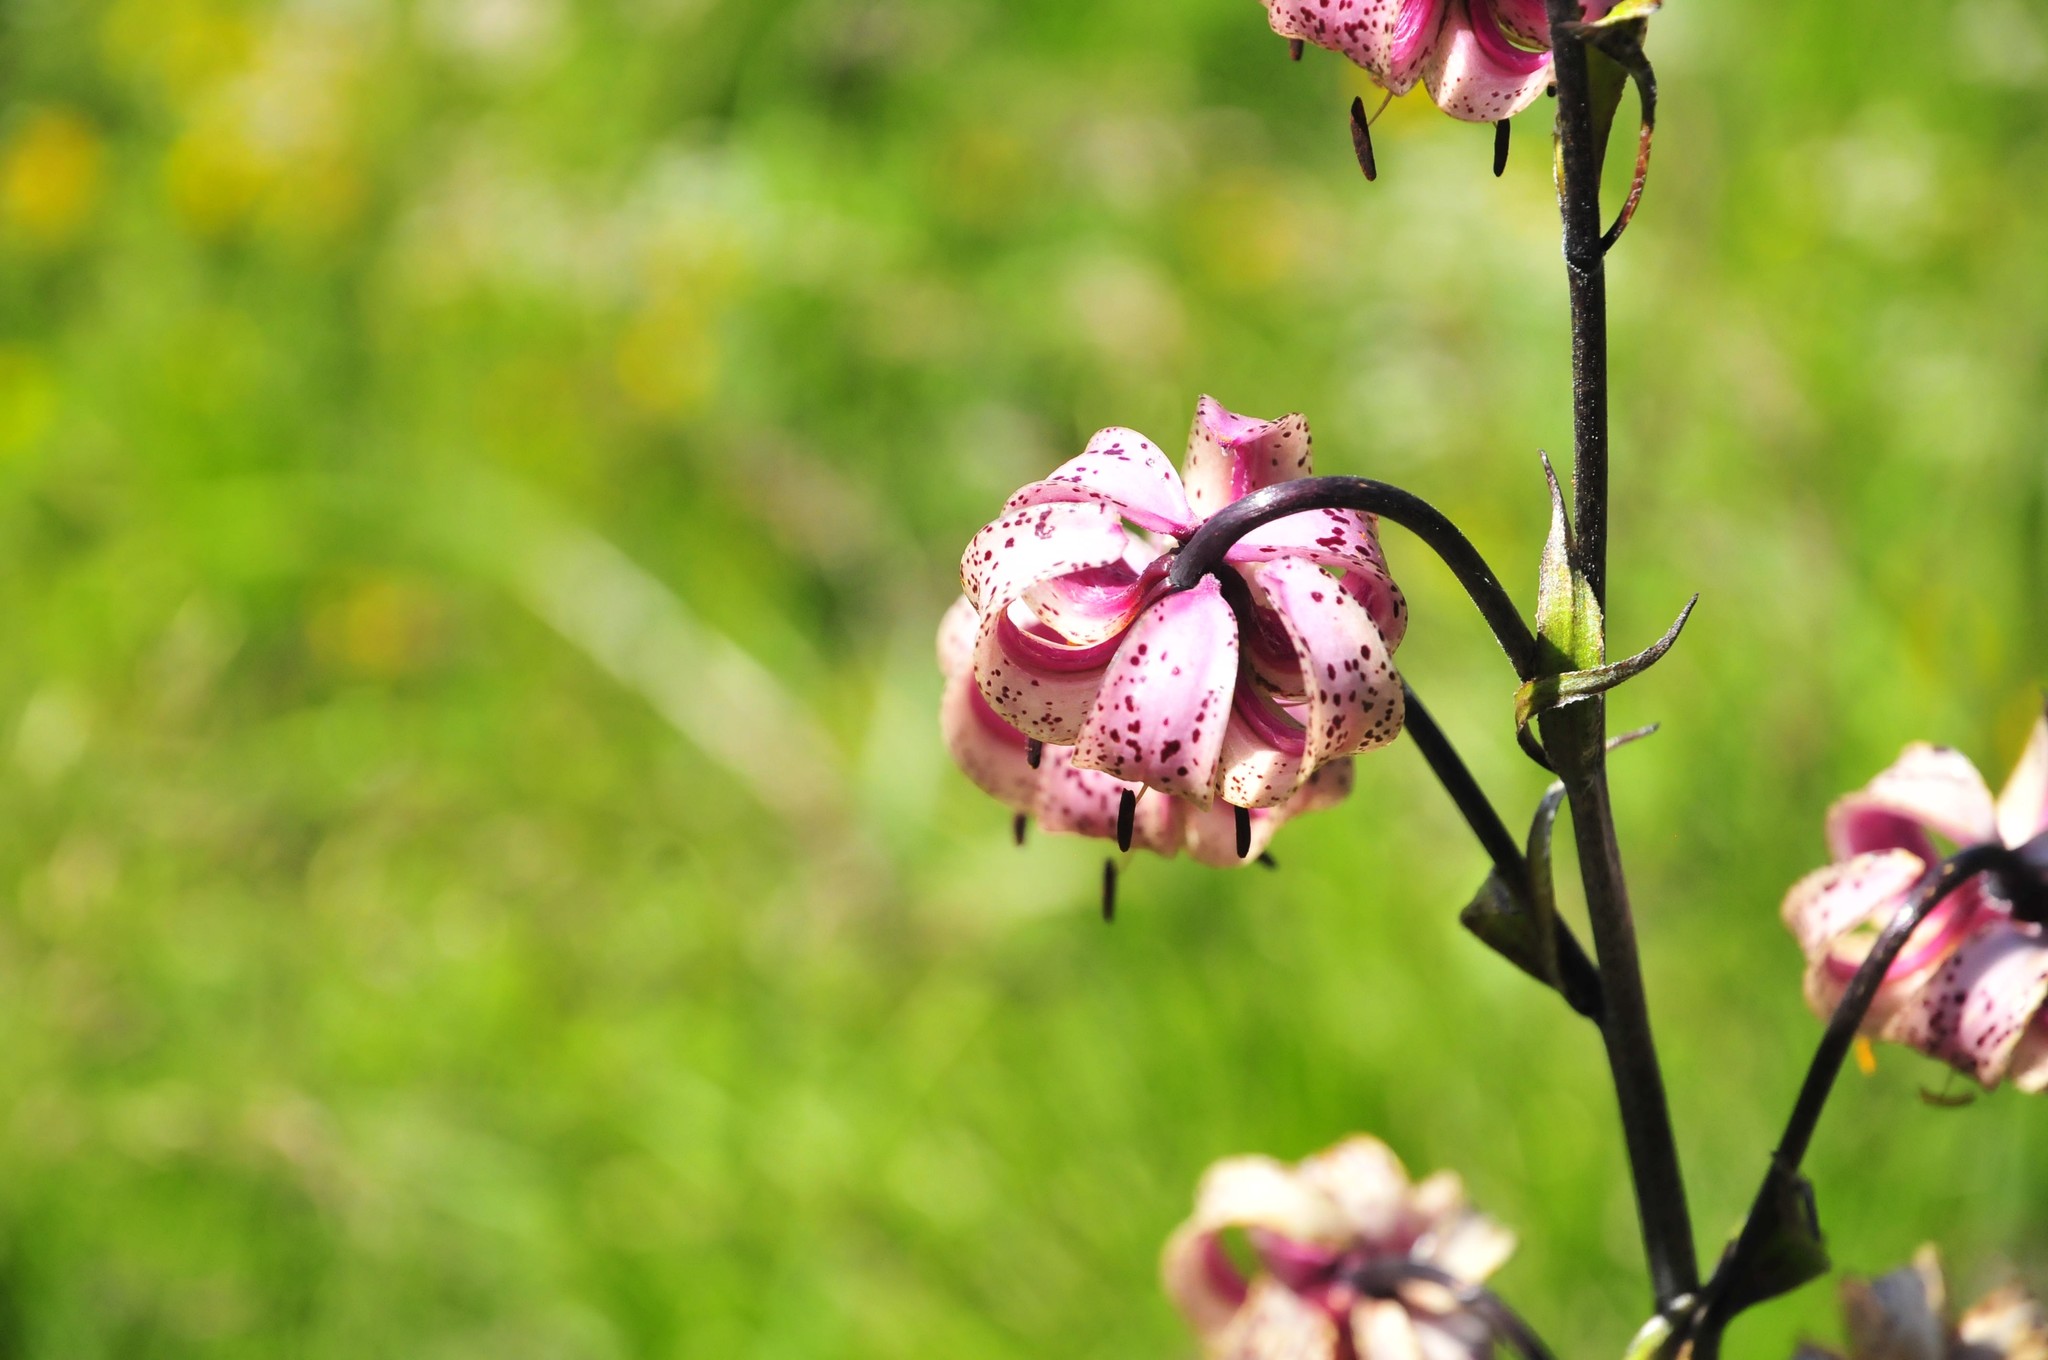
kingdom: Plantae
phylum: Tracheophyta
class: Liliopsida
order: Liliales
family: Liliaceae
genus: Lilium
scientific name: Lilium martagon
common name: Martagon lily
